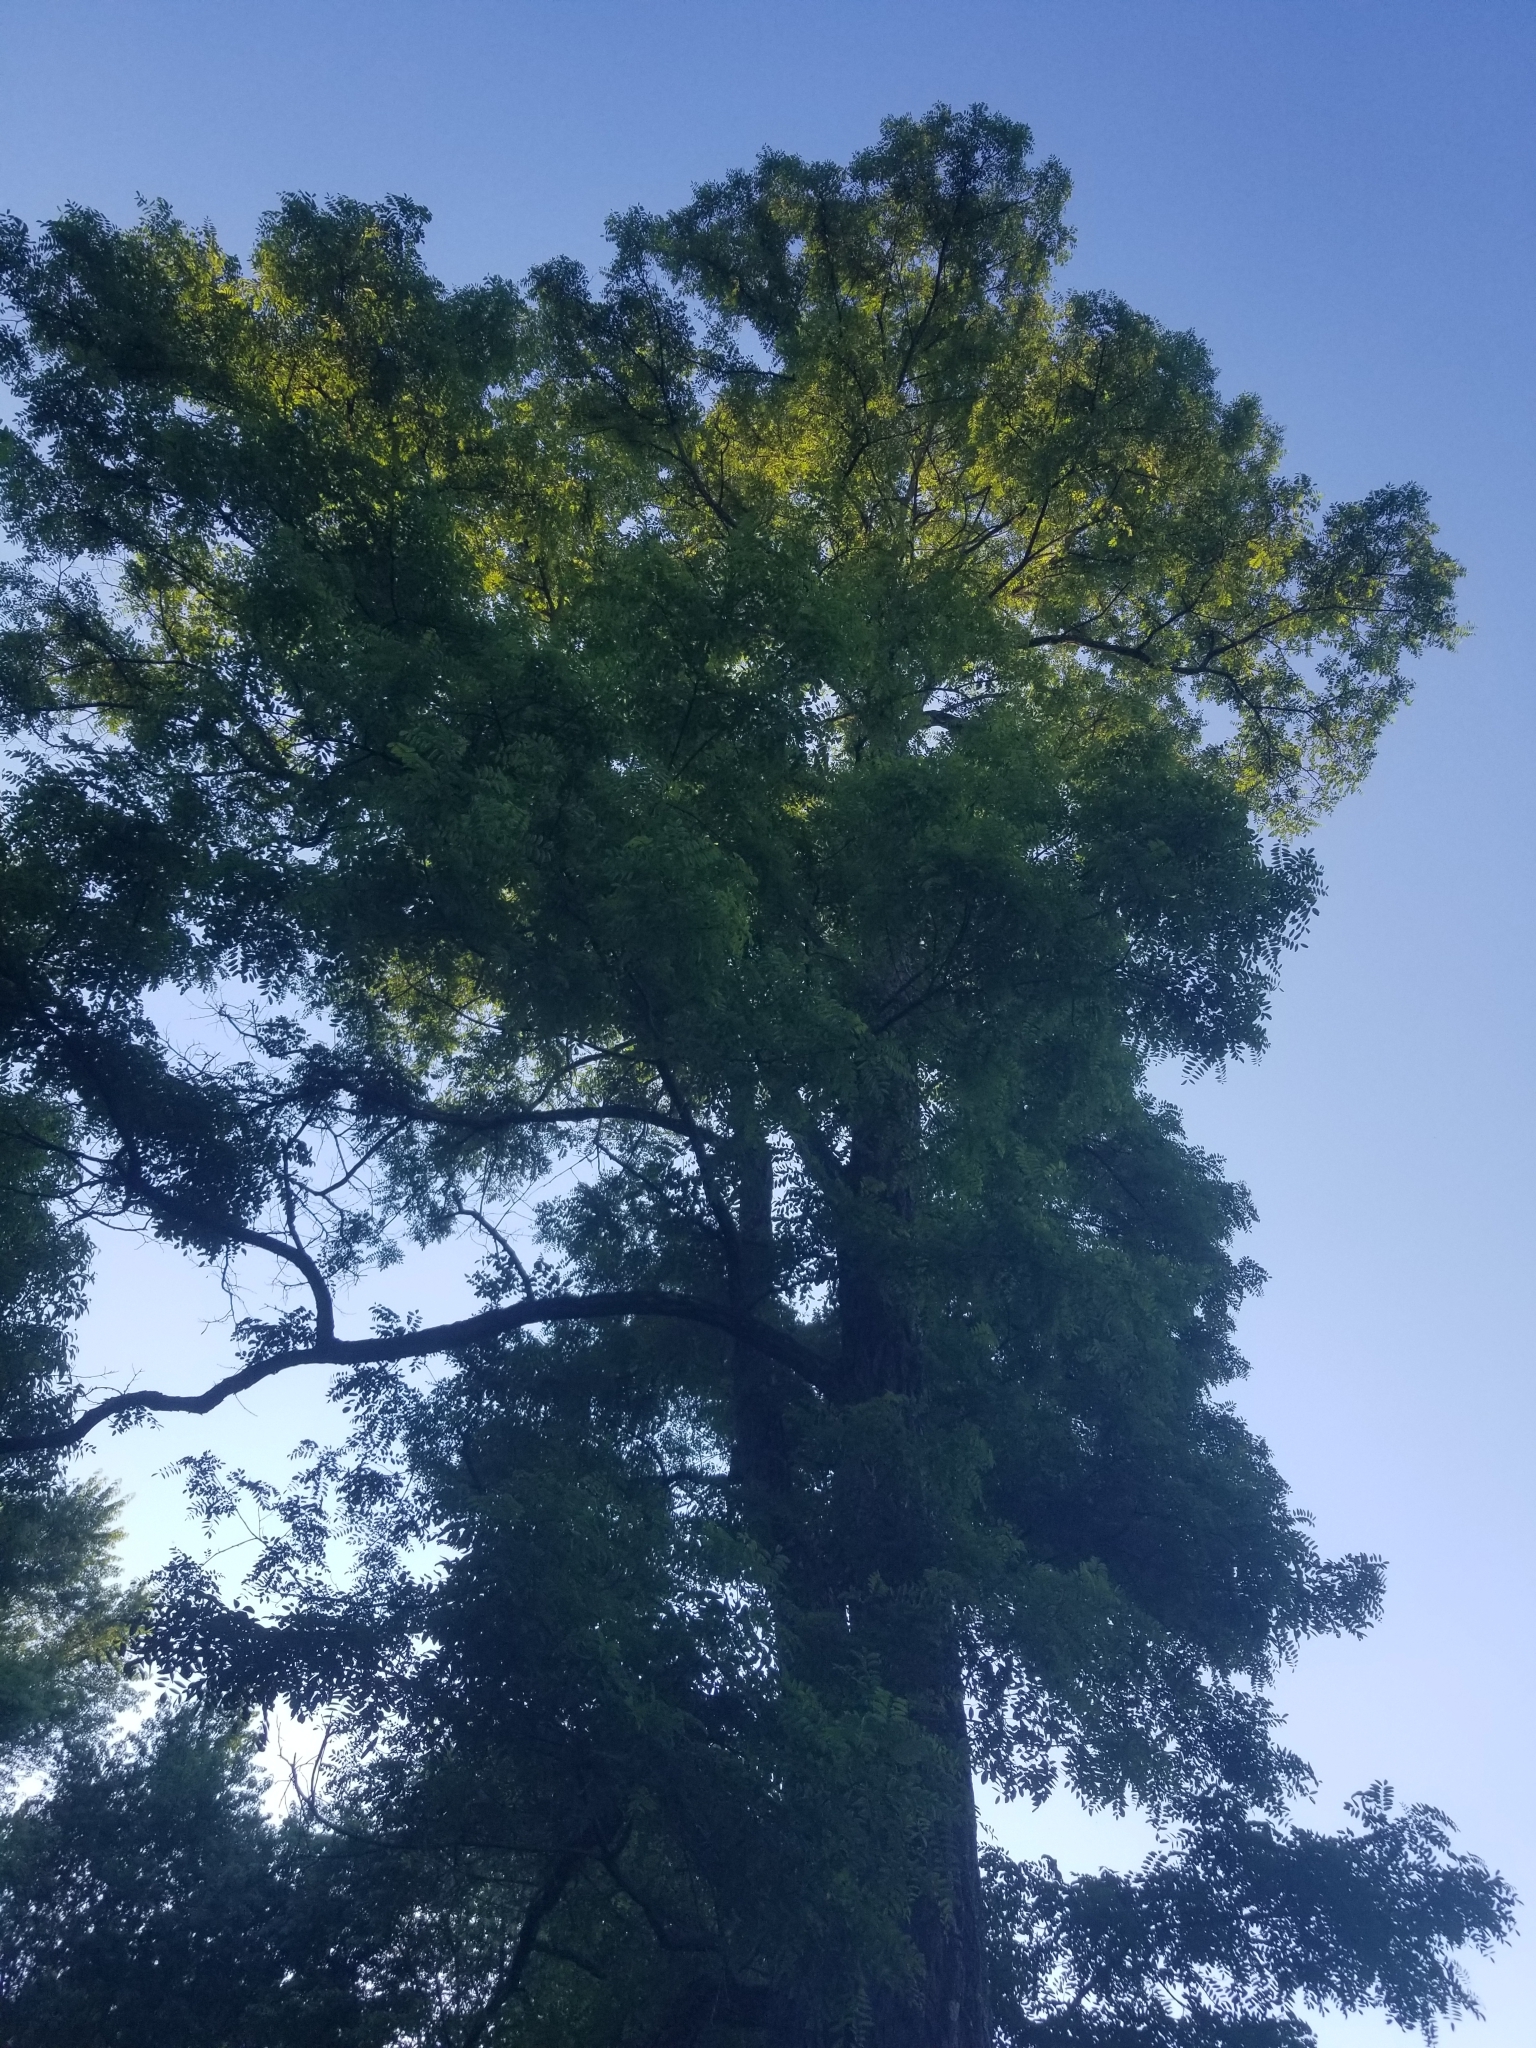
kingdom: Plantae
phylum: Tracheophyta
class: Magnoliopsida
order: Fabales
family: Fabaceae
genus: Robinia
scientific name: Robinia pseudoacacia
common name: Black locust
